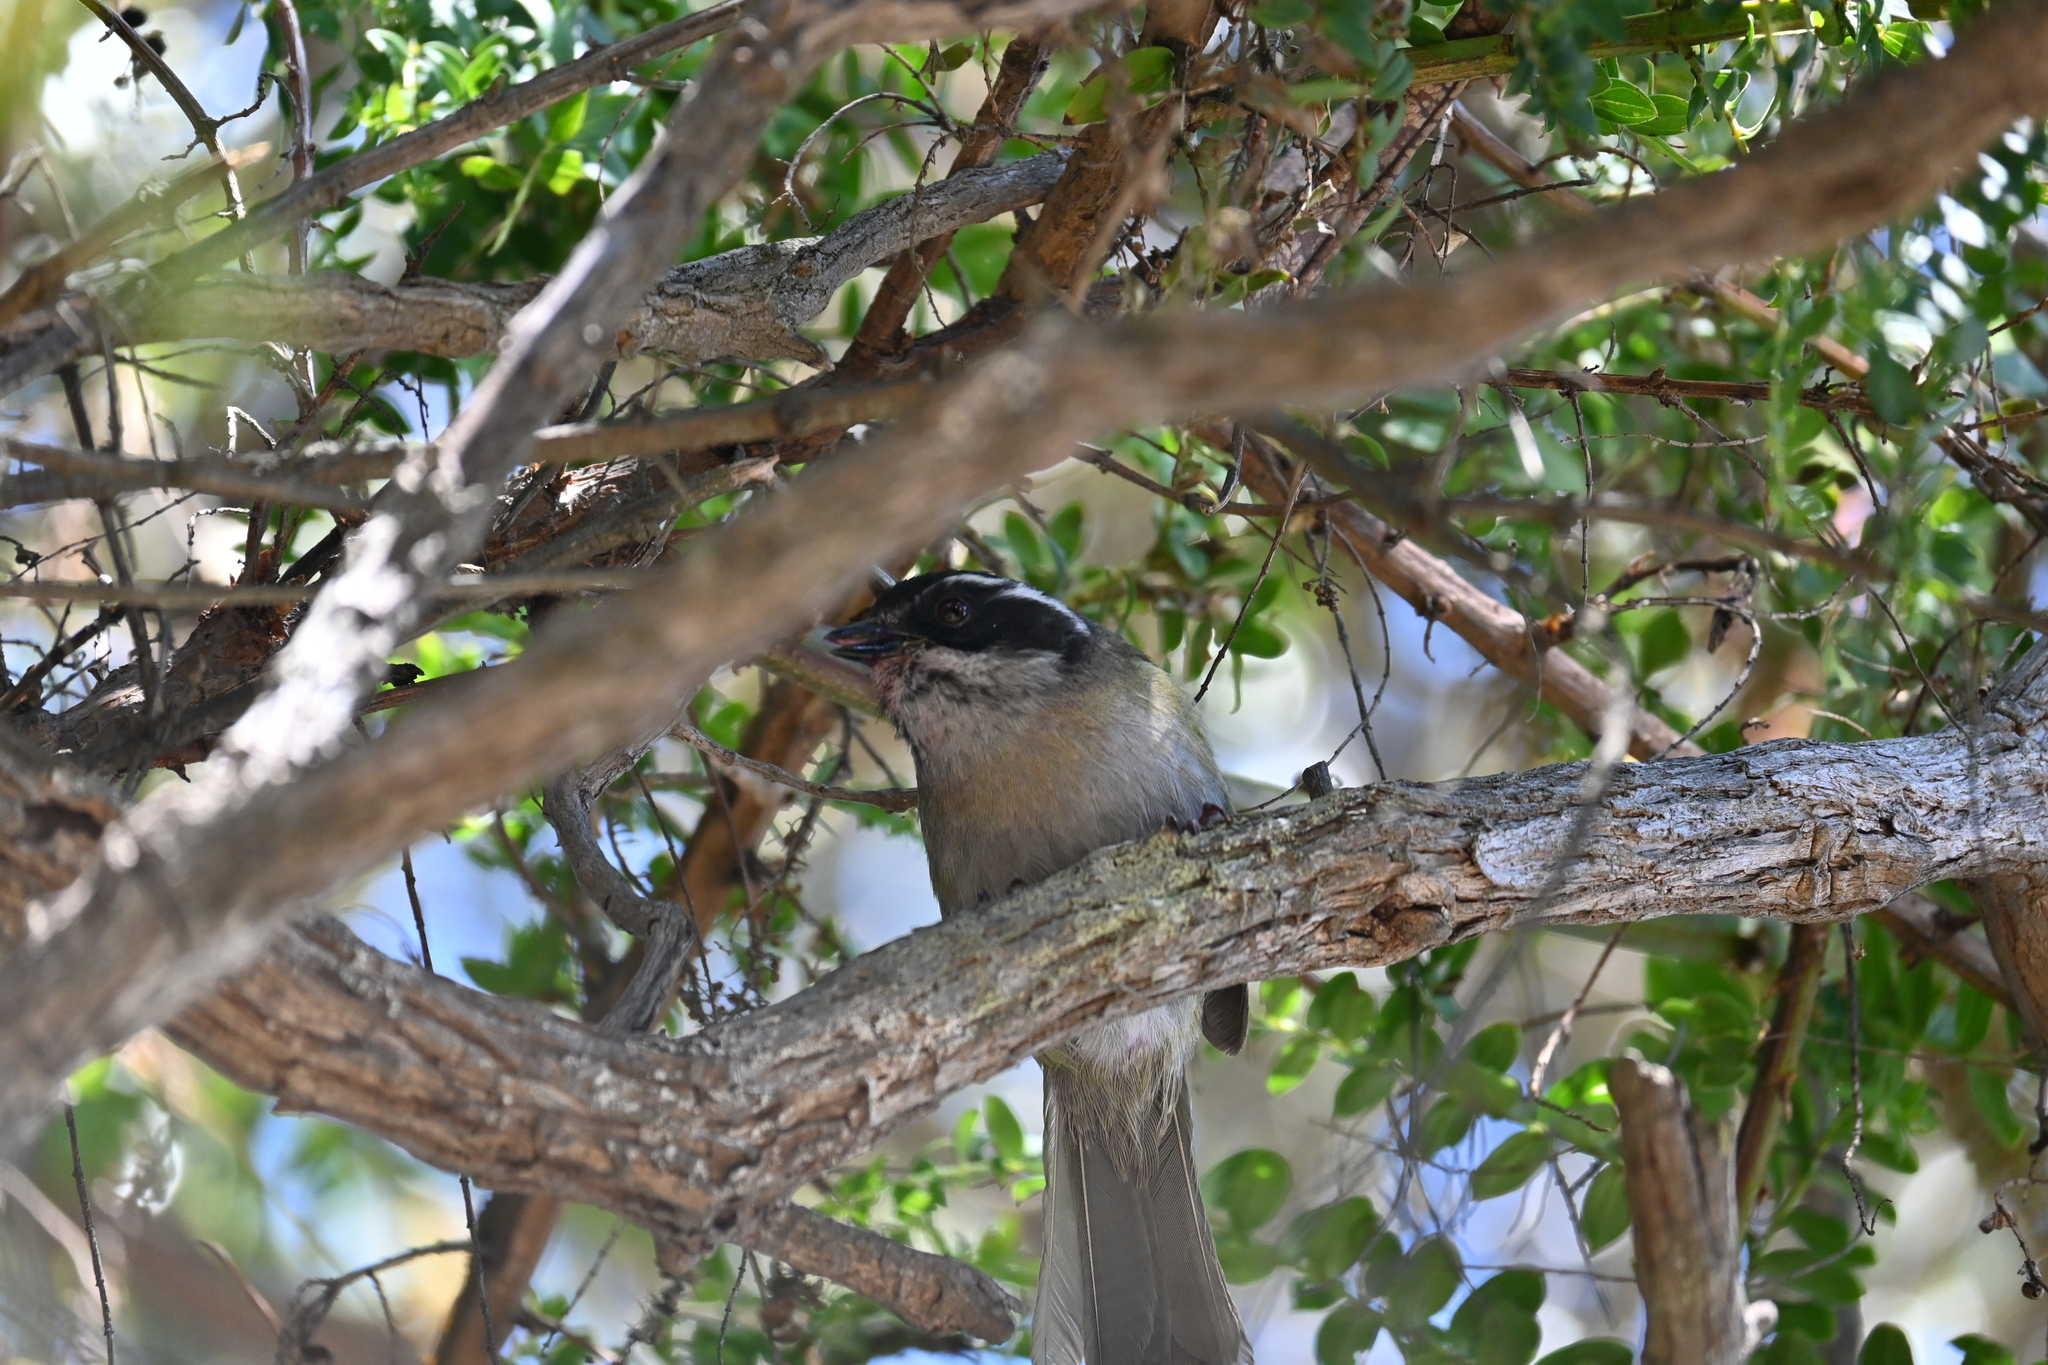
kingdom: Animalia
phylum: Chordata
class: Aves
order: Passeriformes
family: Passerellidae
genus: Chlorospingus
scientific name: Chlorospingus pileatus
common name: Sooty-capped bush-tanager
